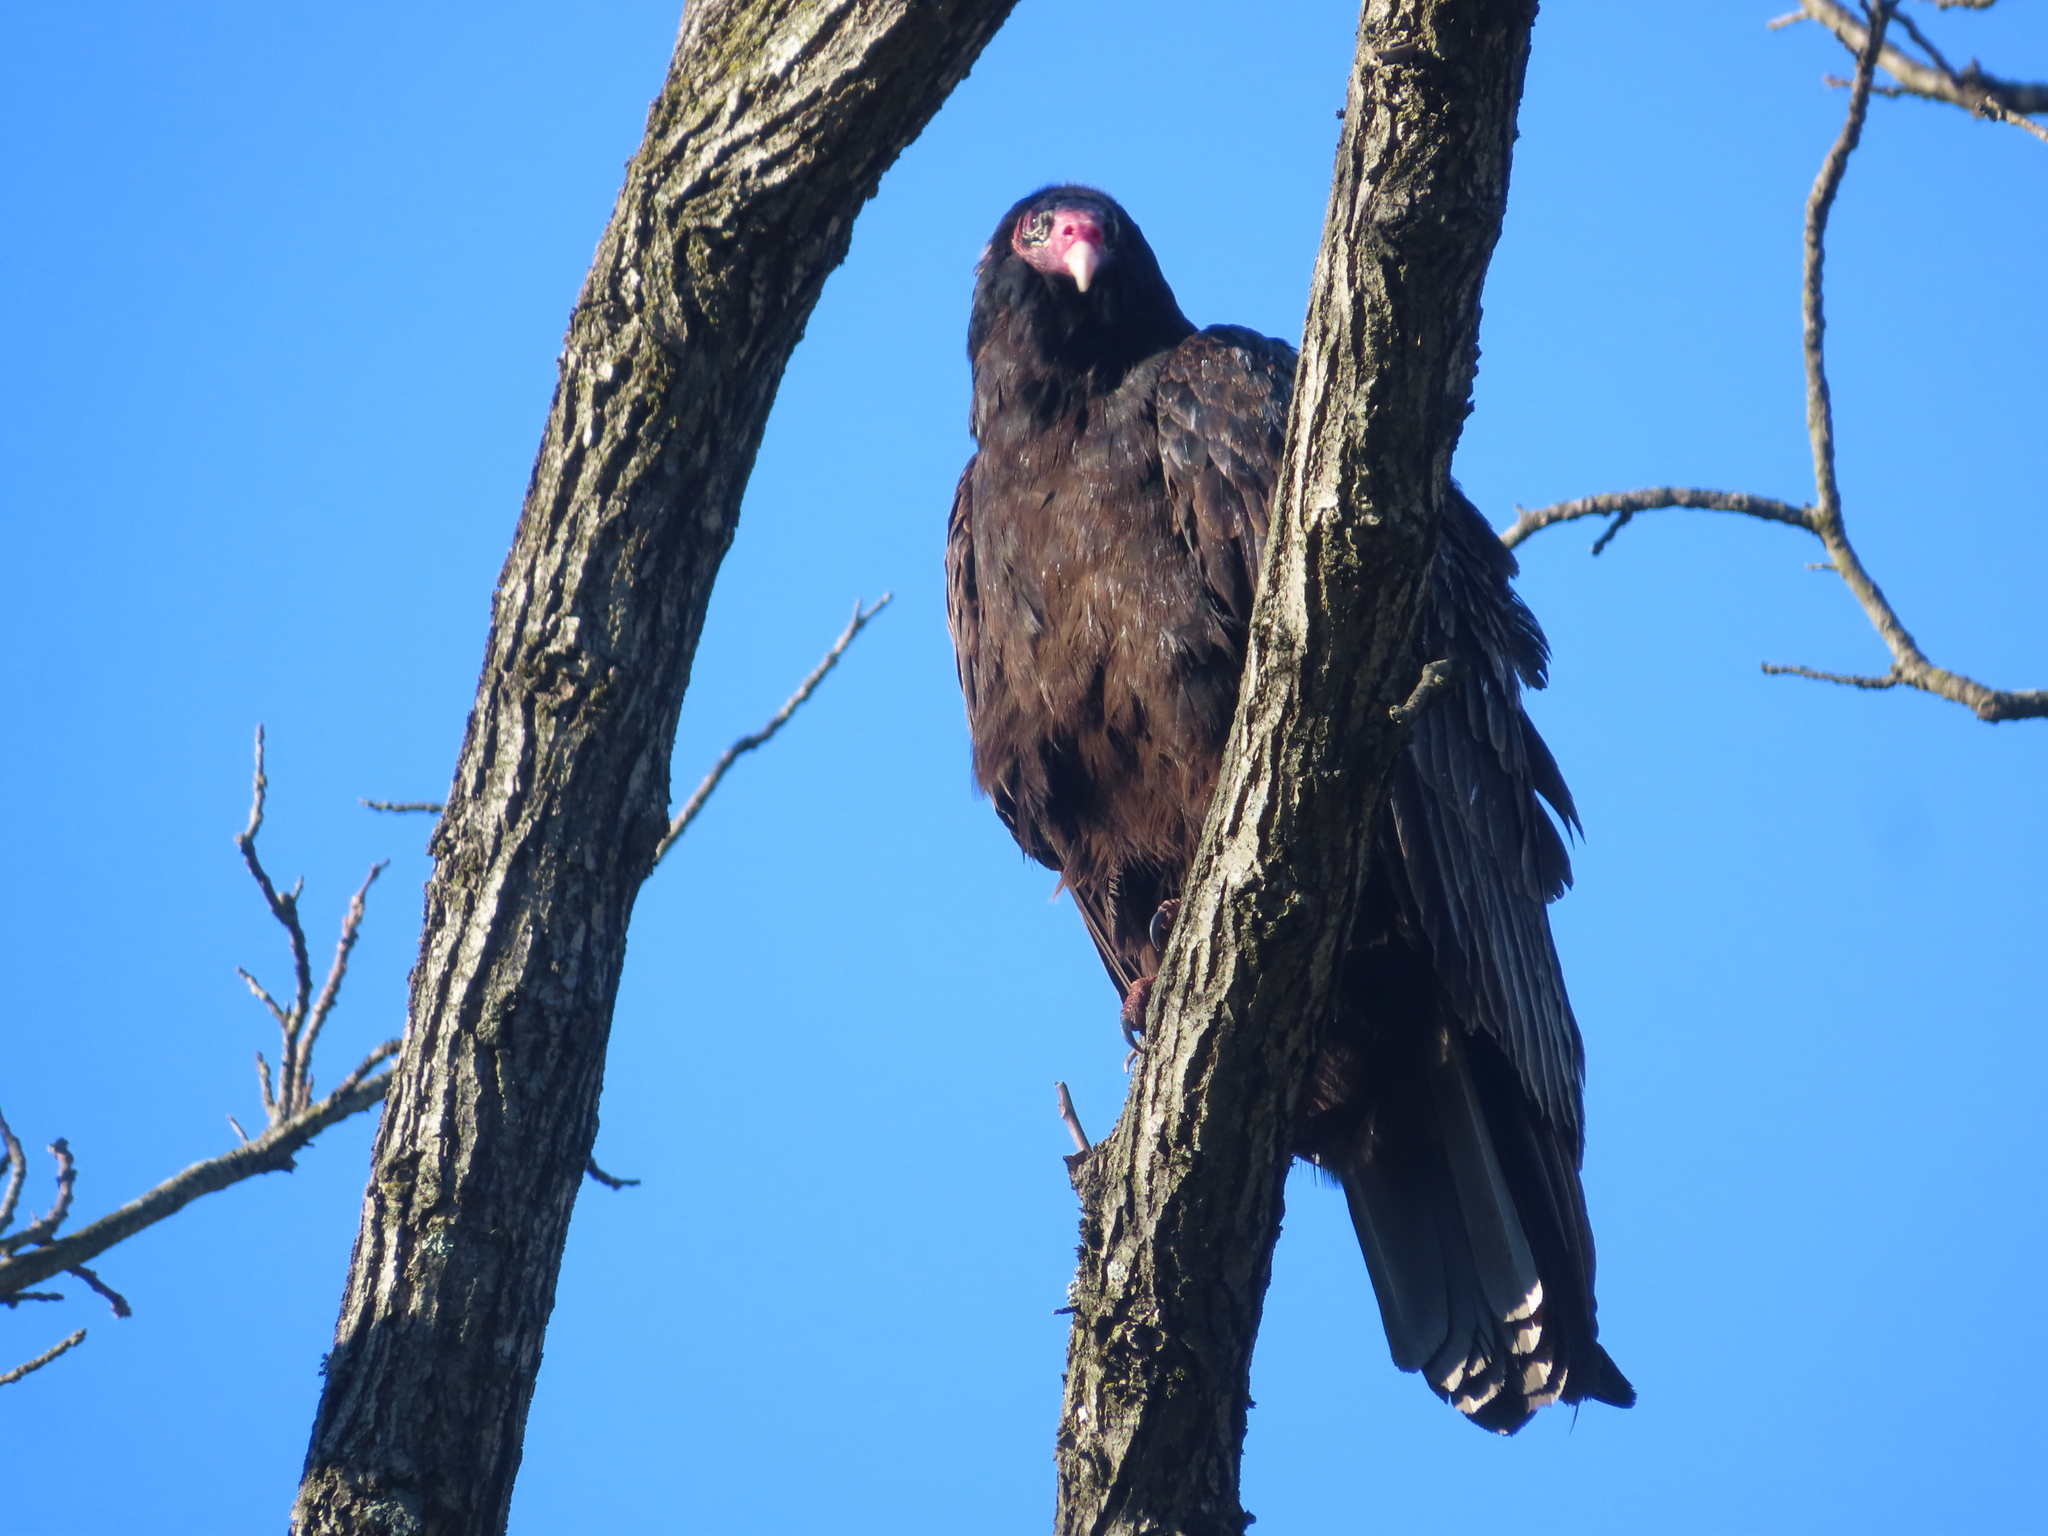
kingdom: Animalia
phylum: Chordata
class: Aves
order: Accipitriformes
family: Cathartidae
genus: Cathartes
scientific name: Cathartes aura
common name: Turkey vulture
